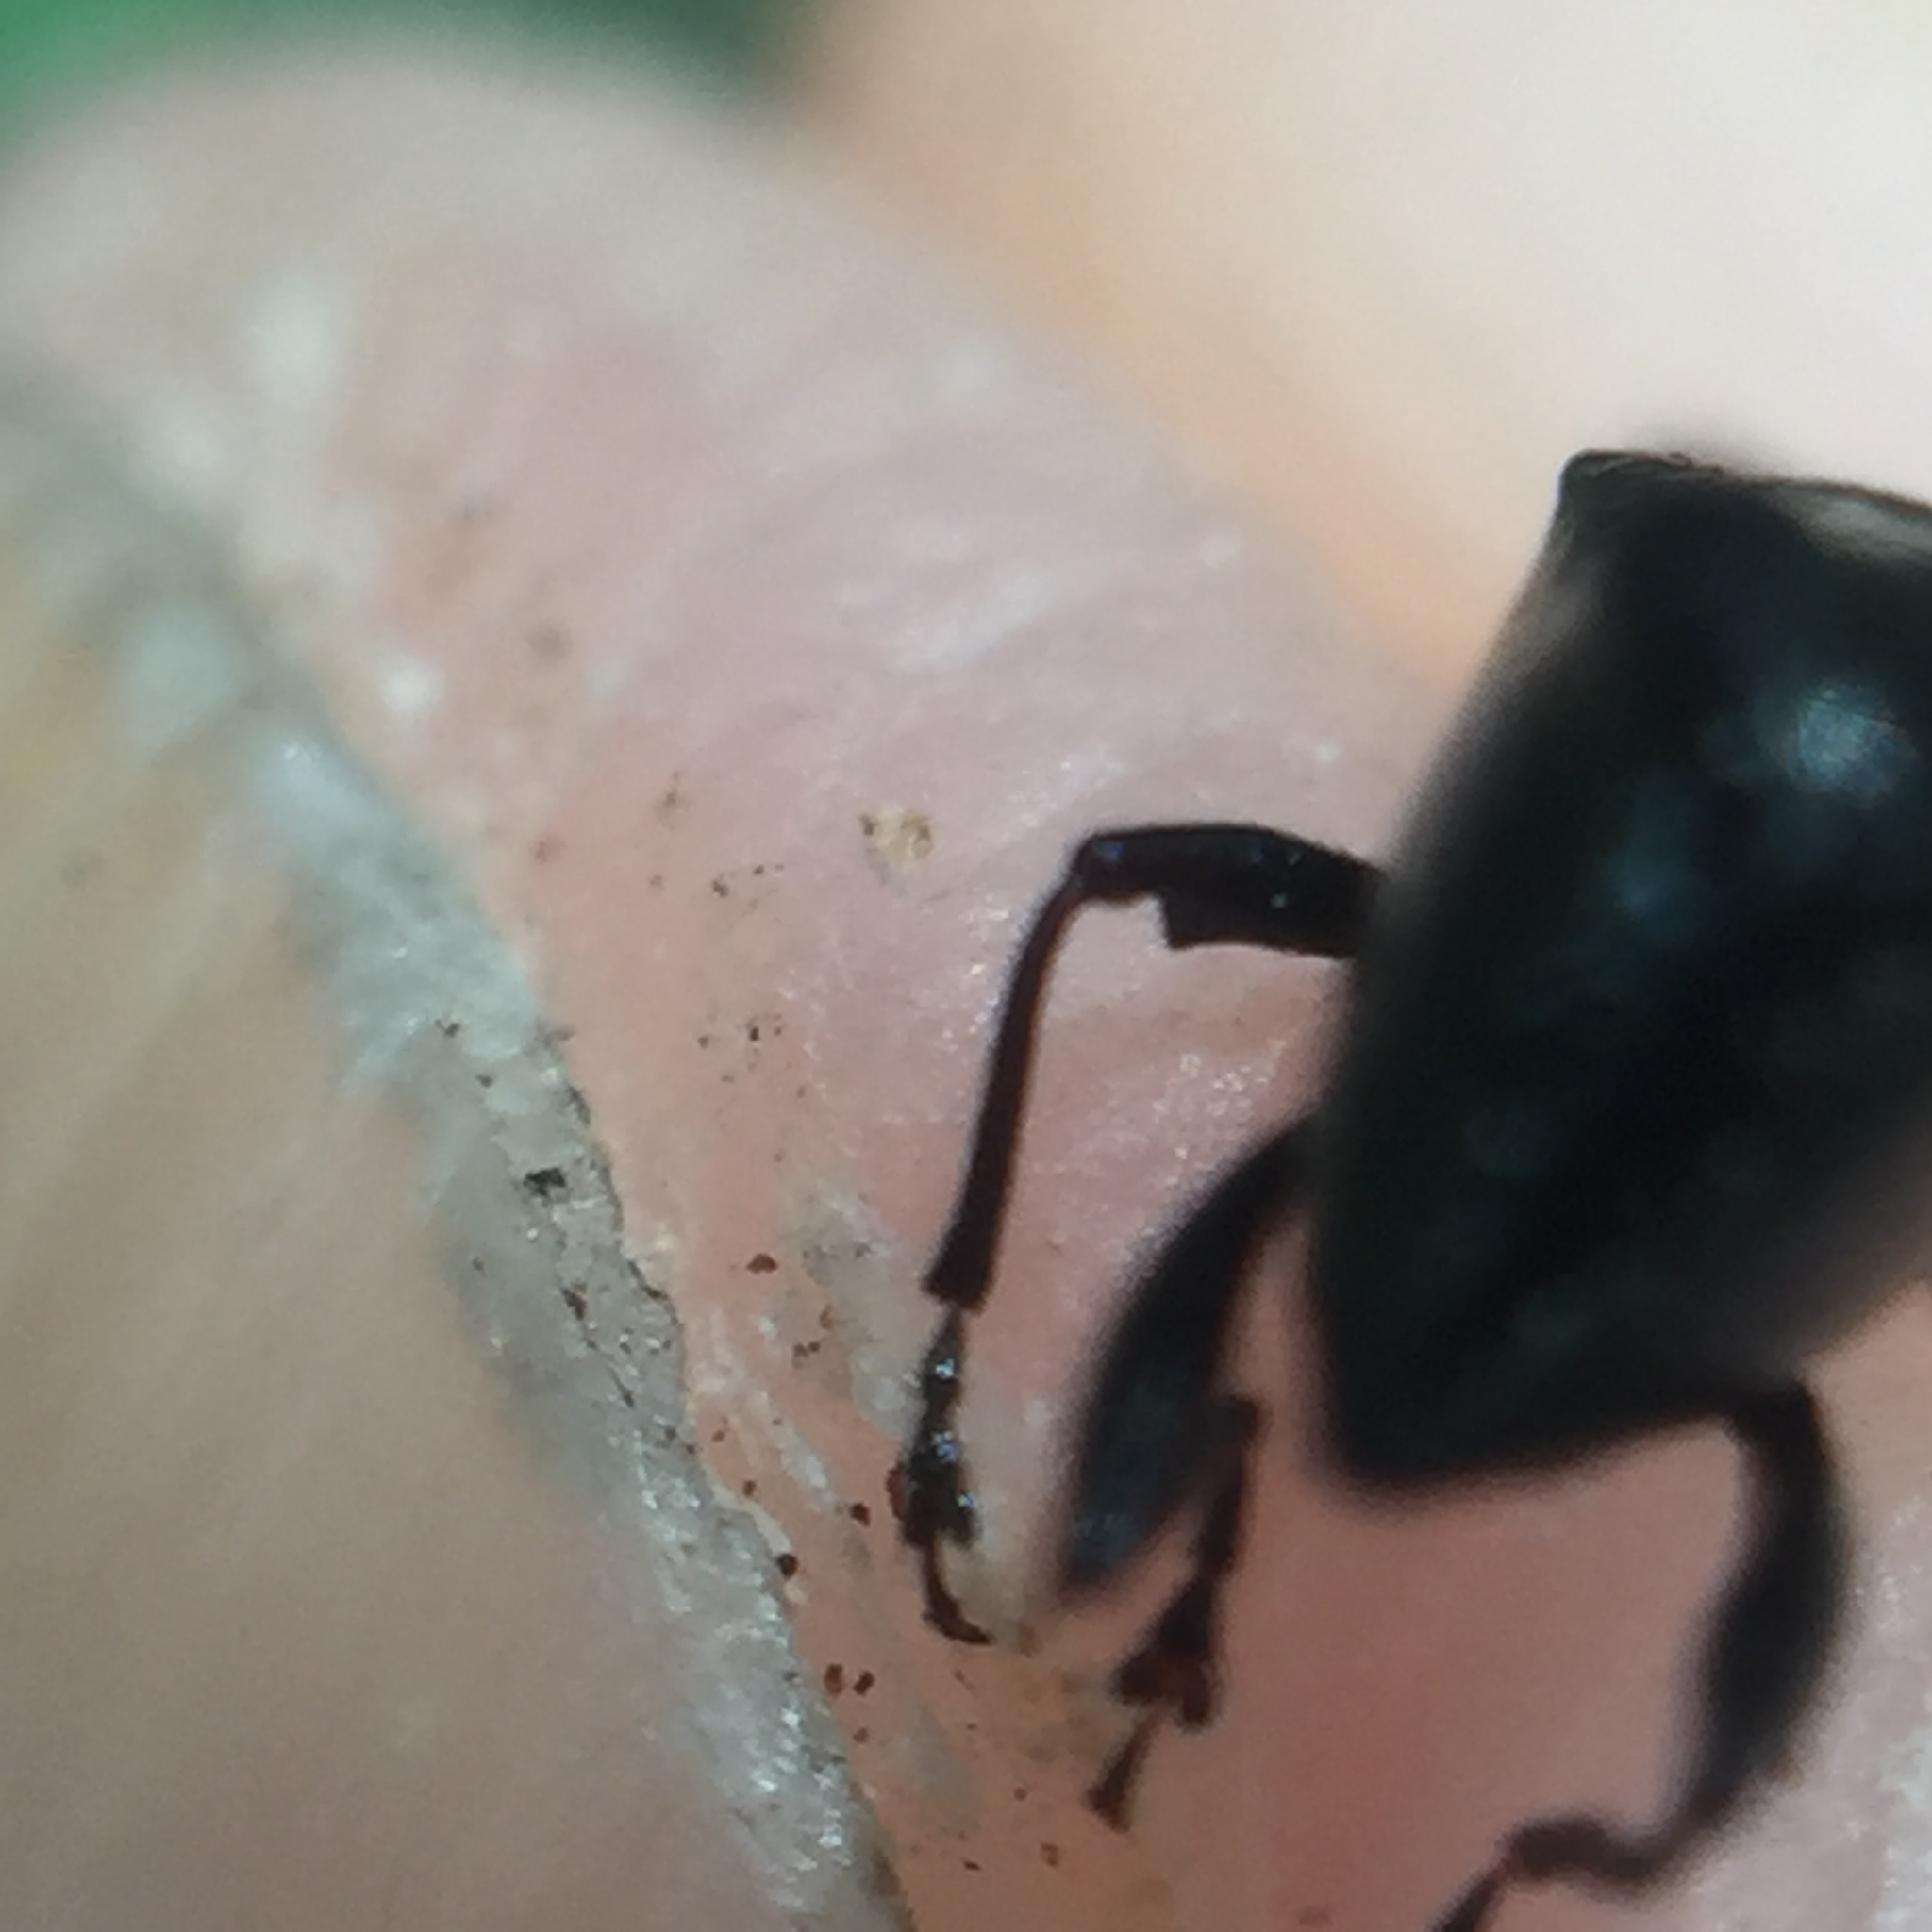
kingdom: Animalia
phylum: Arthropoda
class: Insecta
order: Coleoptera
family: Curculionidae
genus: Scolopterus
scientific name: Scolopterus penicillatus
